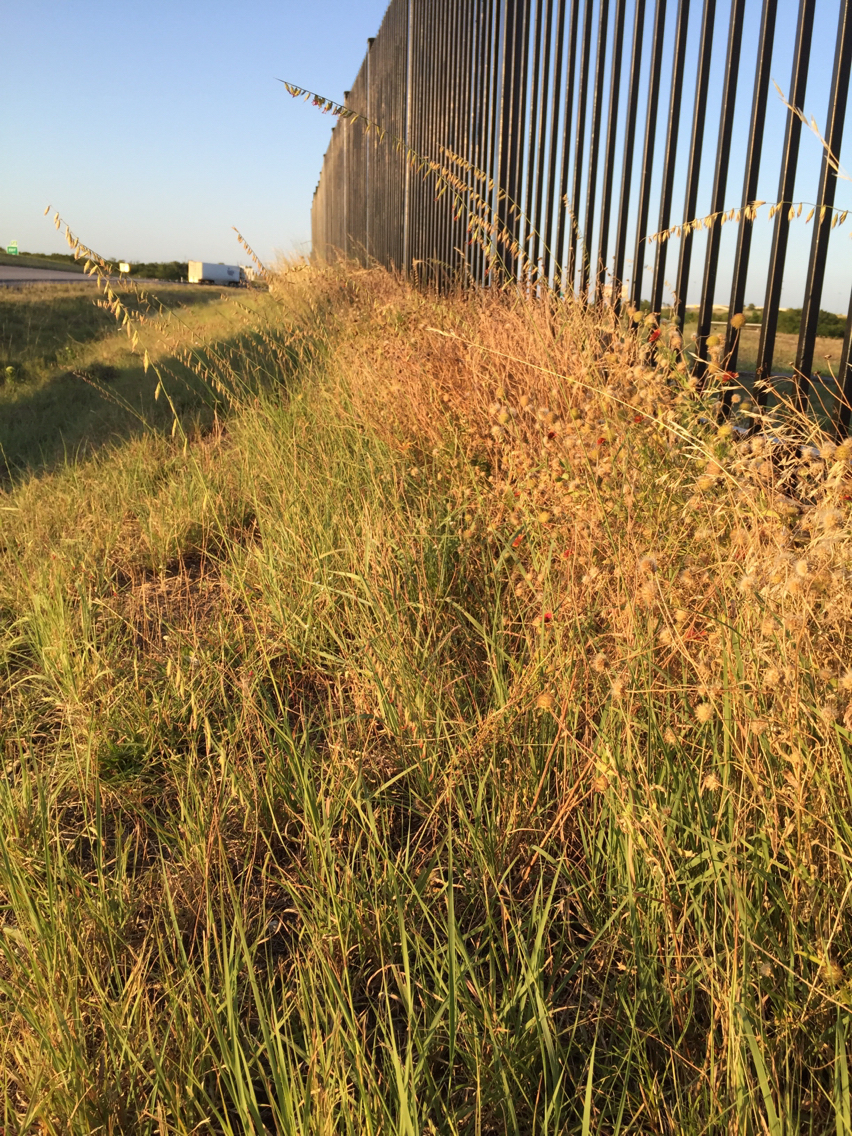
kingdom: Plantae
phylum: Tracheophyta
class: Liliopsida
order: Poales
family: Poaceae
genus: Bouteloua
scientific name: Bouteloua curtipendula
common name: Side-oats grama
